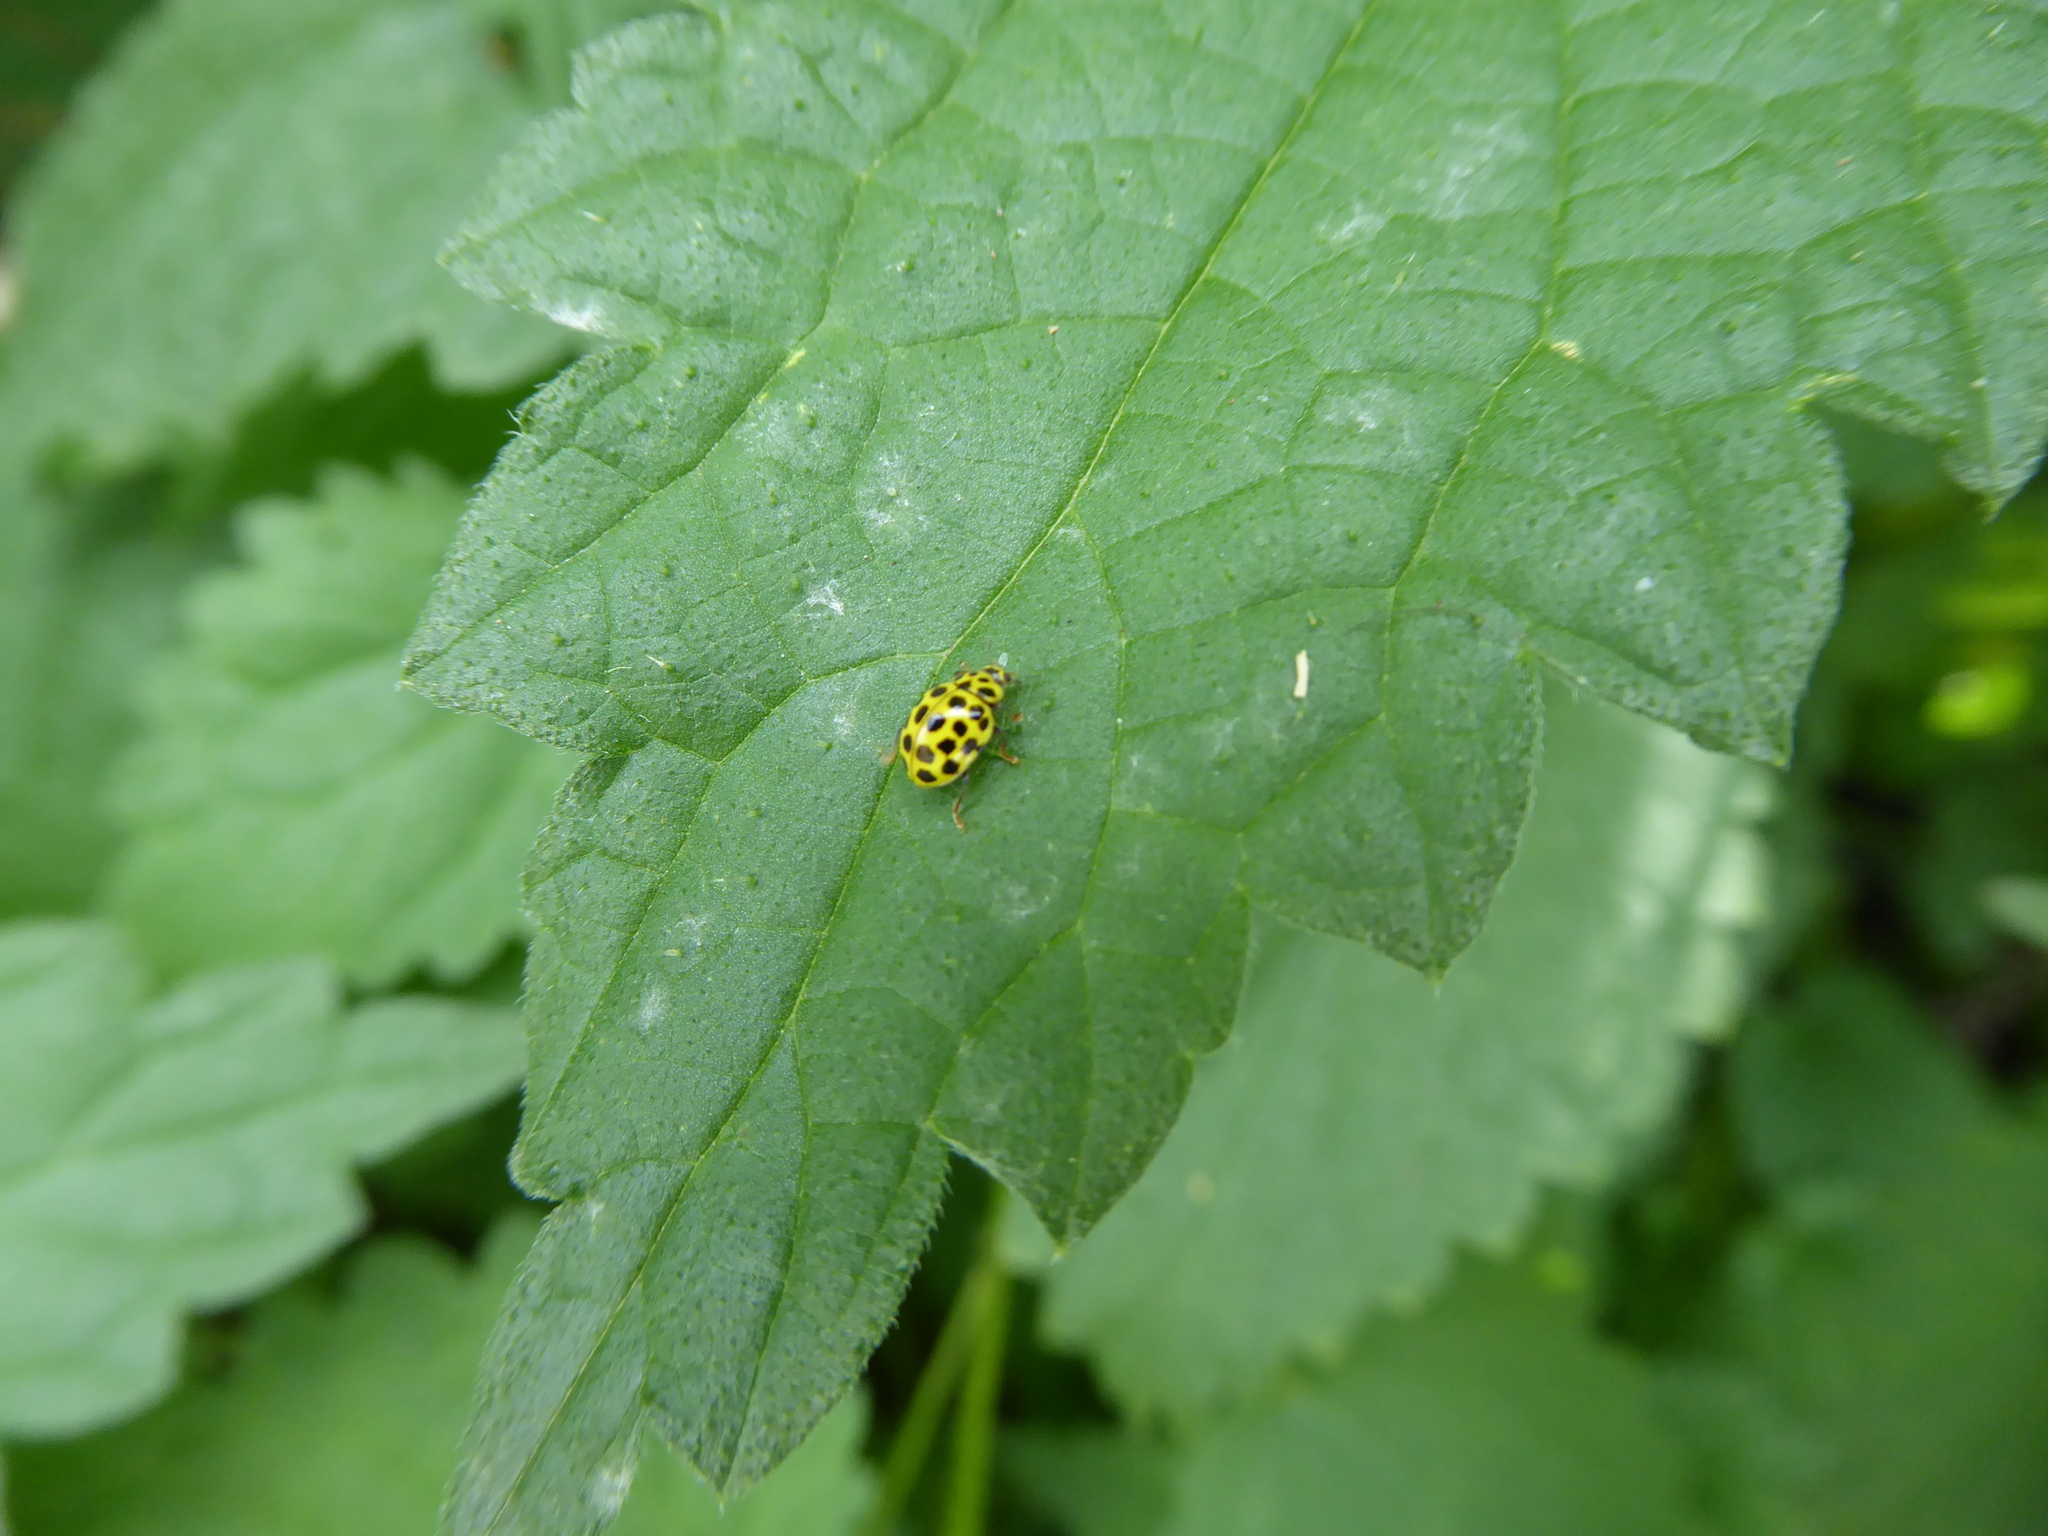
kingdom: Animalia
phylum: Arthropoda
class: Insecta
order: Coleoptera
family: Coccinellidae
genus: Psyllobora
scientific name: Psyllobora vigintiduopunctata
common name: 22-spot ladybird
